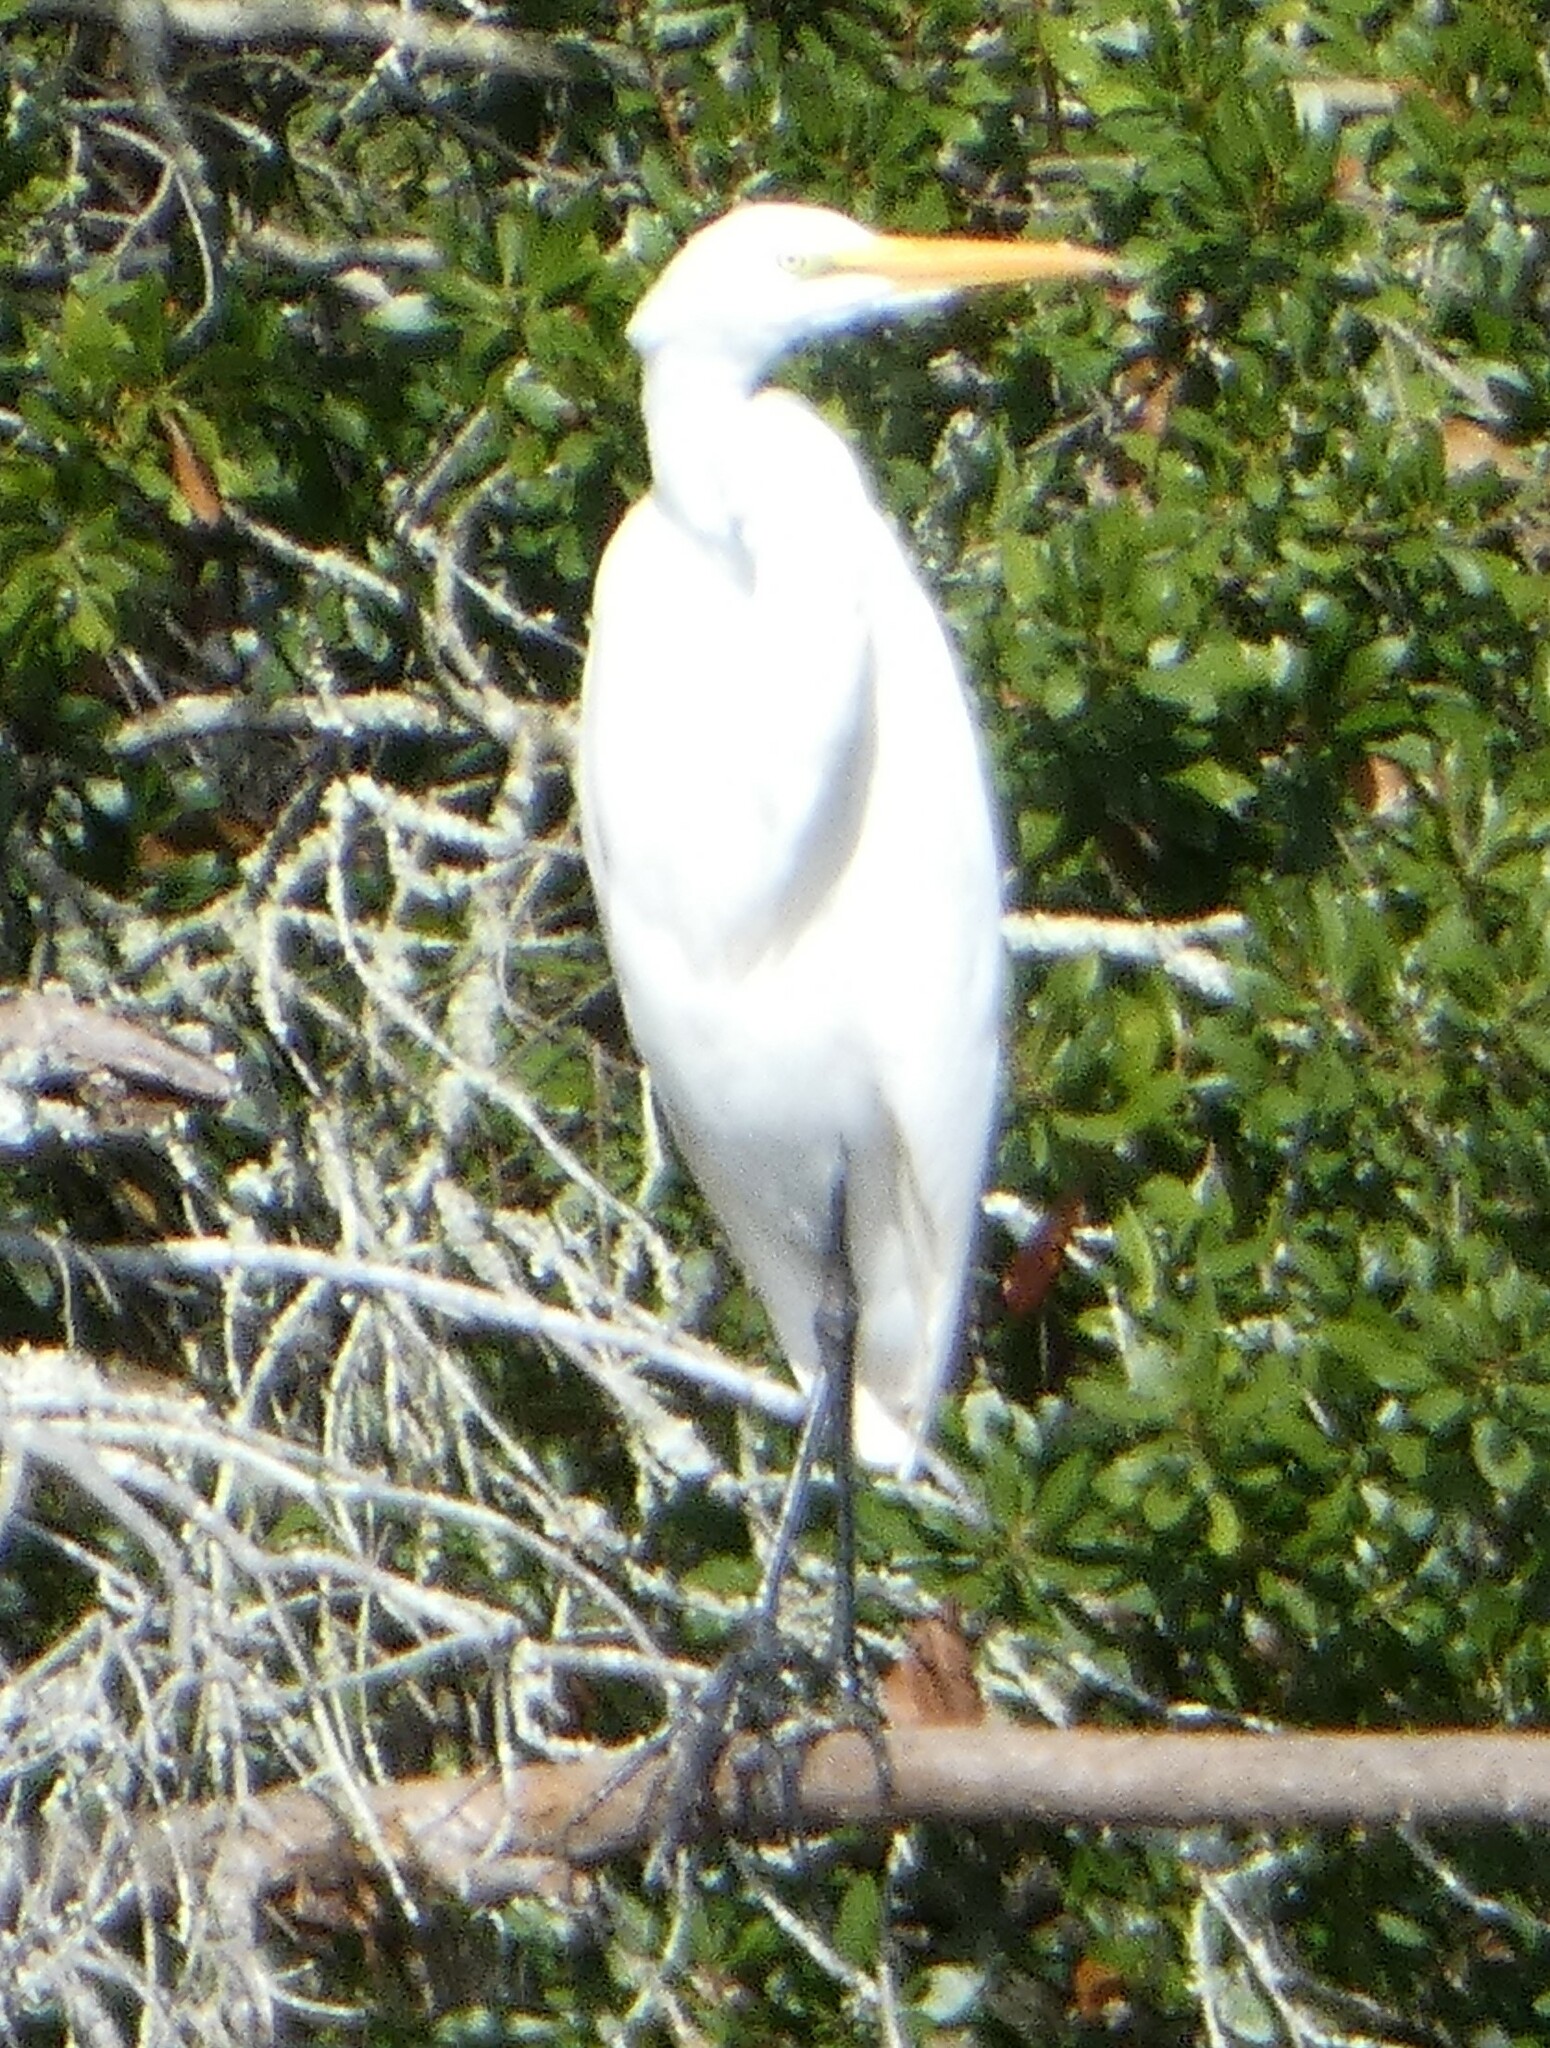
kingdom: Animalia
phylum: Chordata
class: Aves
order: Pelecaniformes
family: Ardeidae
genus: Ardea
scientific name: Ardea alba
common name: Great egret
